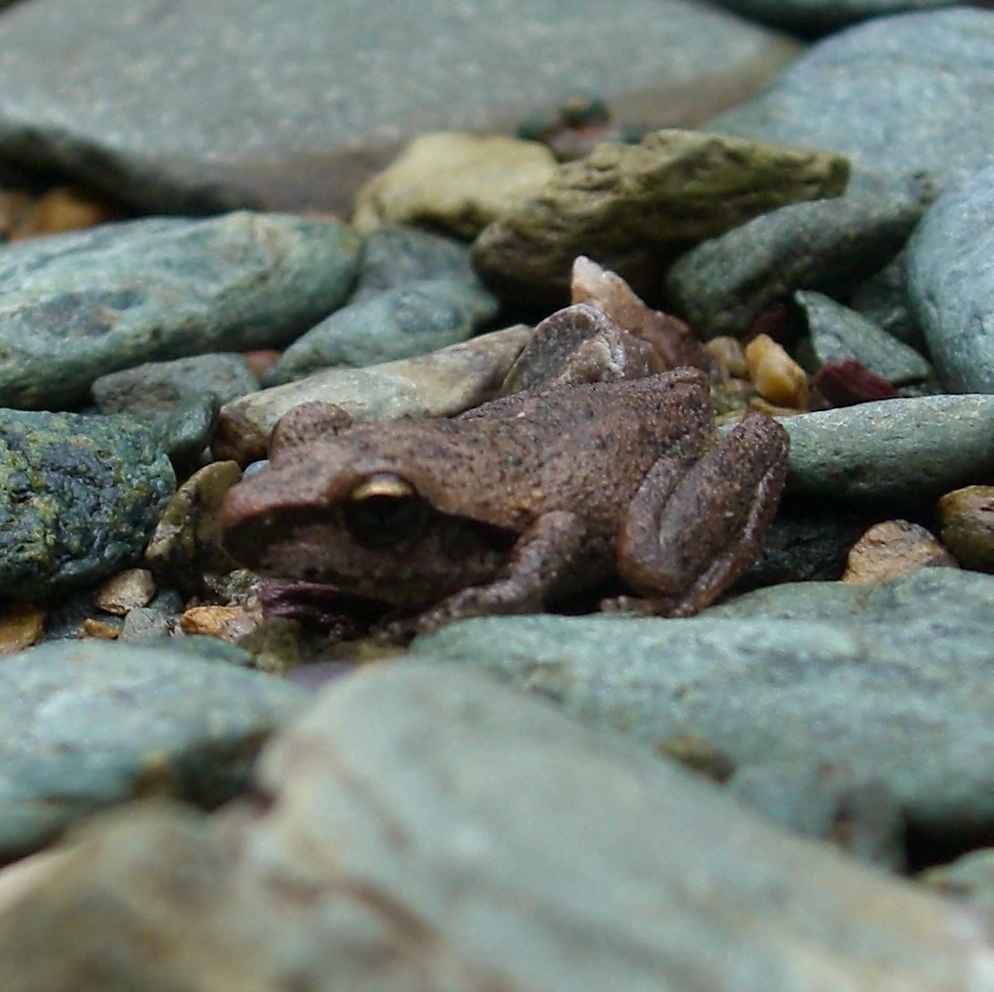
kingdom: Animalia
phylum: Chordata
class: Amphibia
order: Anura
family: Pelodryadidae
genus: Ranoidea
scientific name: Ranoidea wilcoxii
